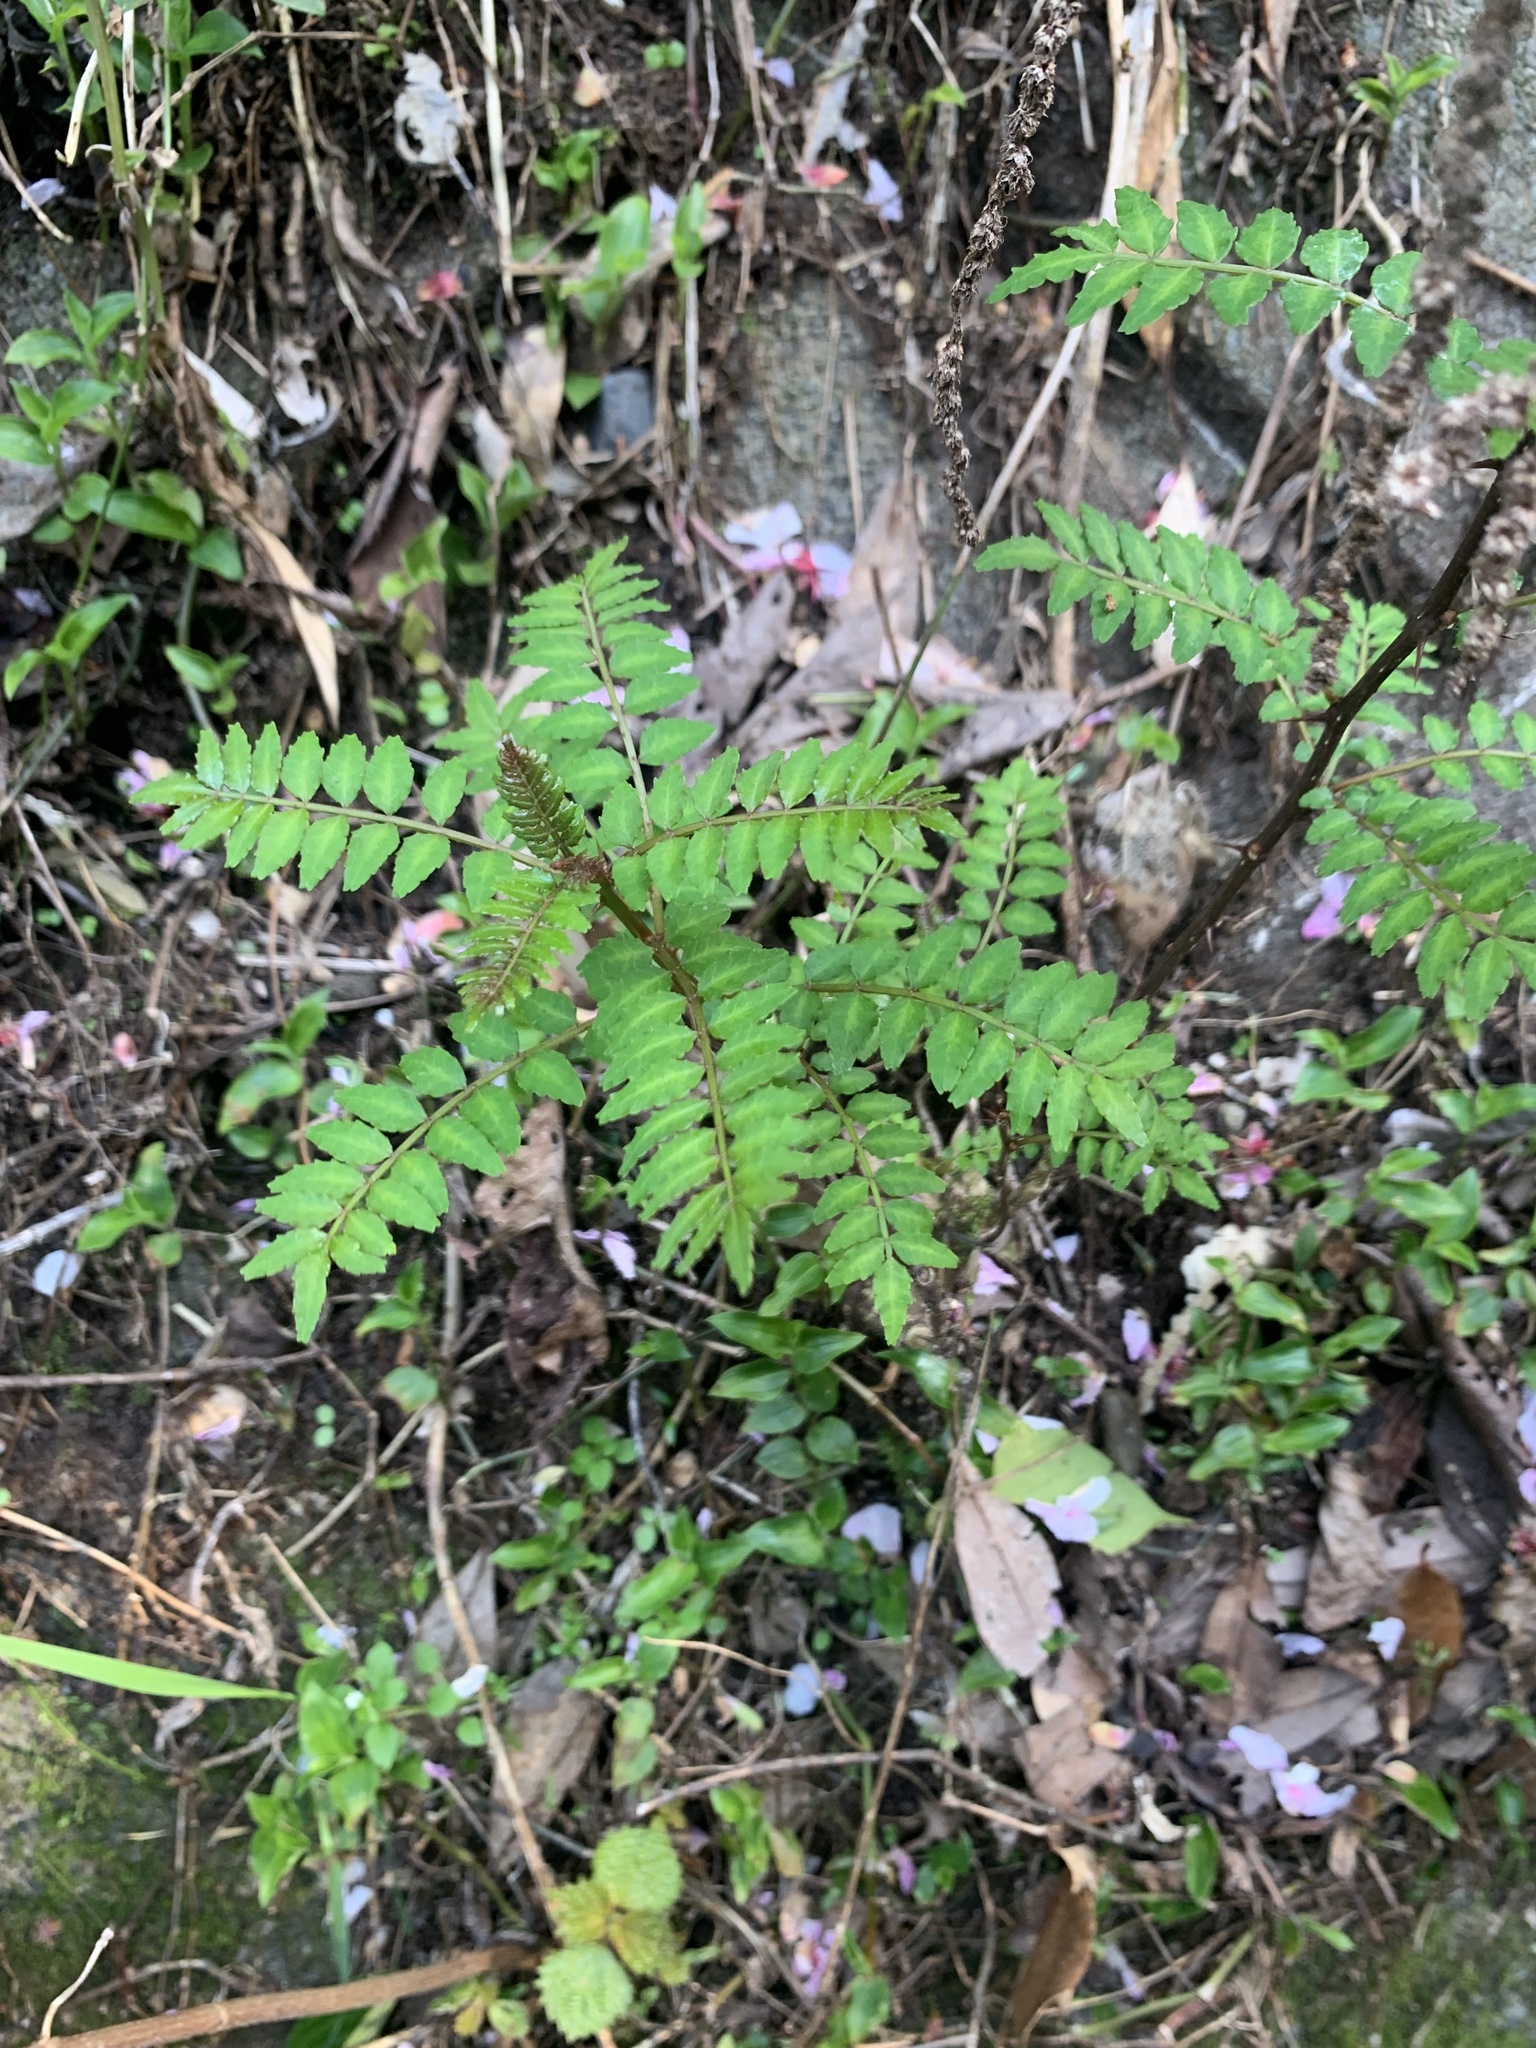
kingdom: Plantae
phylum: Tracheophyta
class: Magnoliopsida
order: Sapindales
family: Rutaceae
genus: Zanthoxylum
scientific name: Zanthoxylum piperitum
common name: Japanese-pepper
